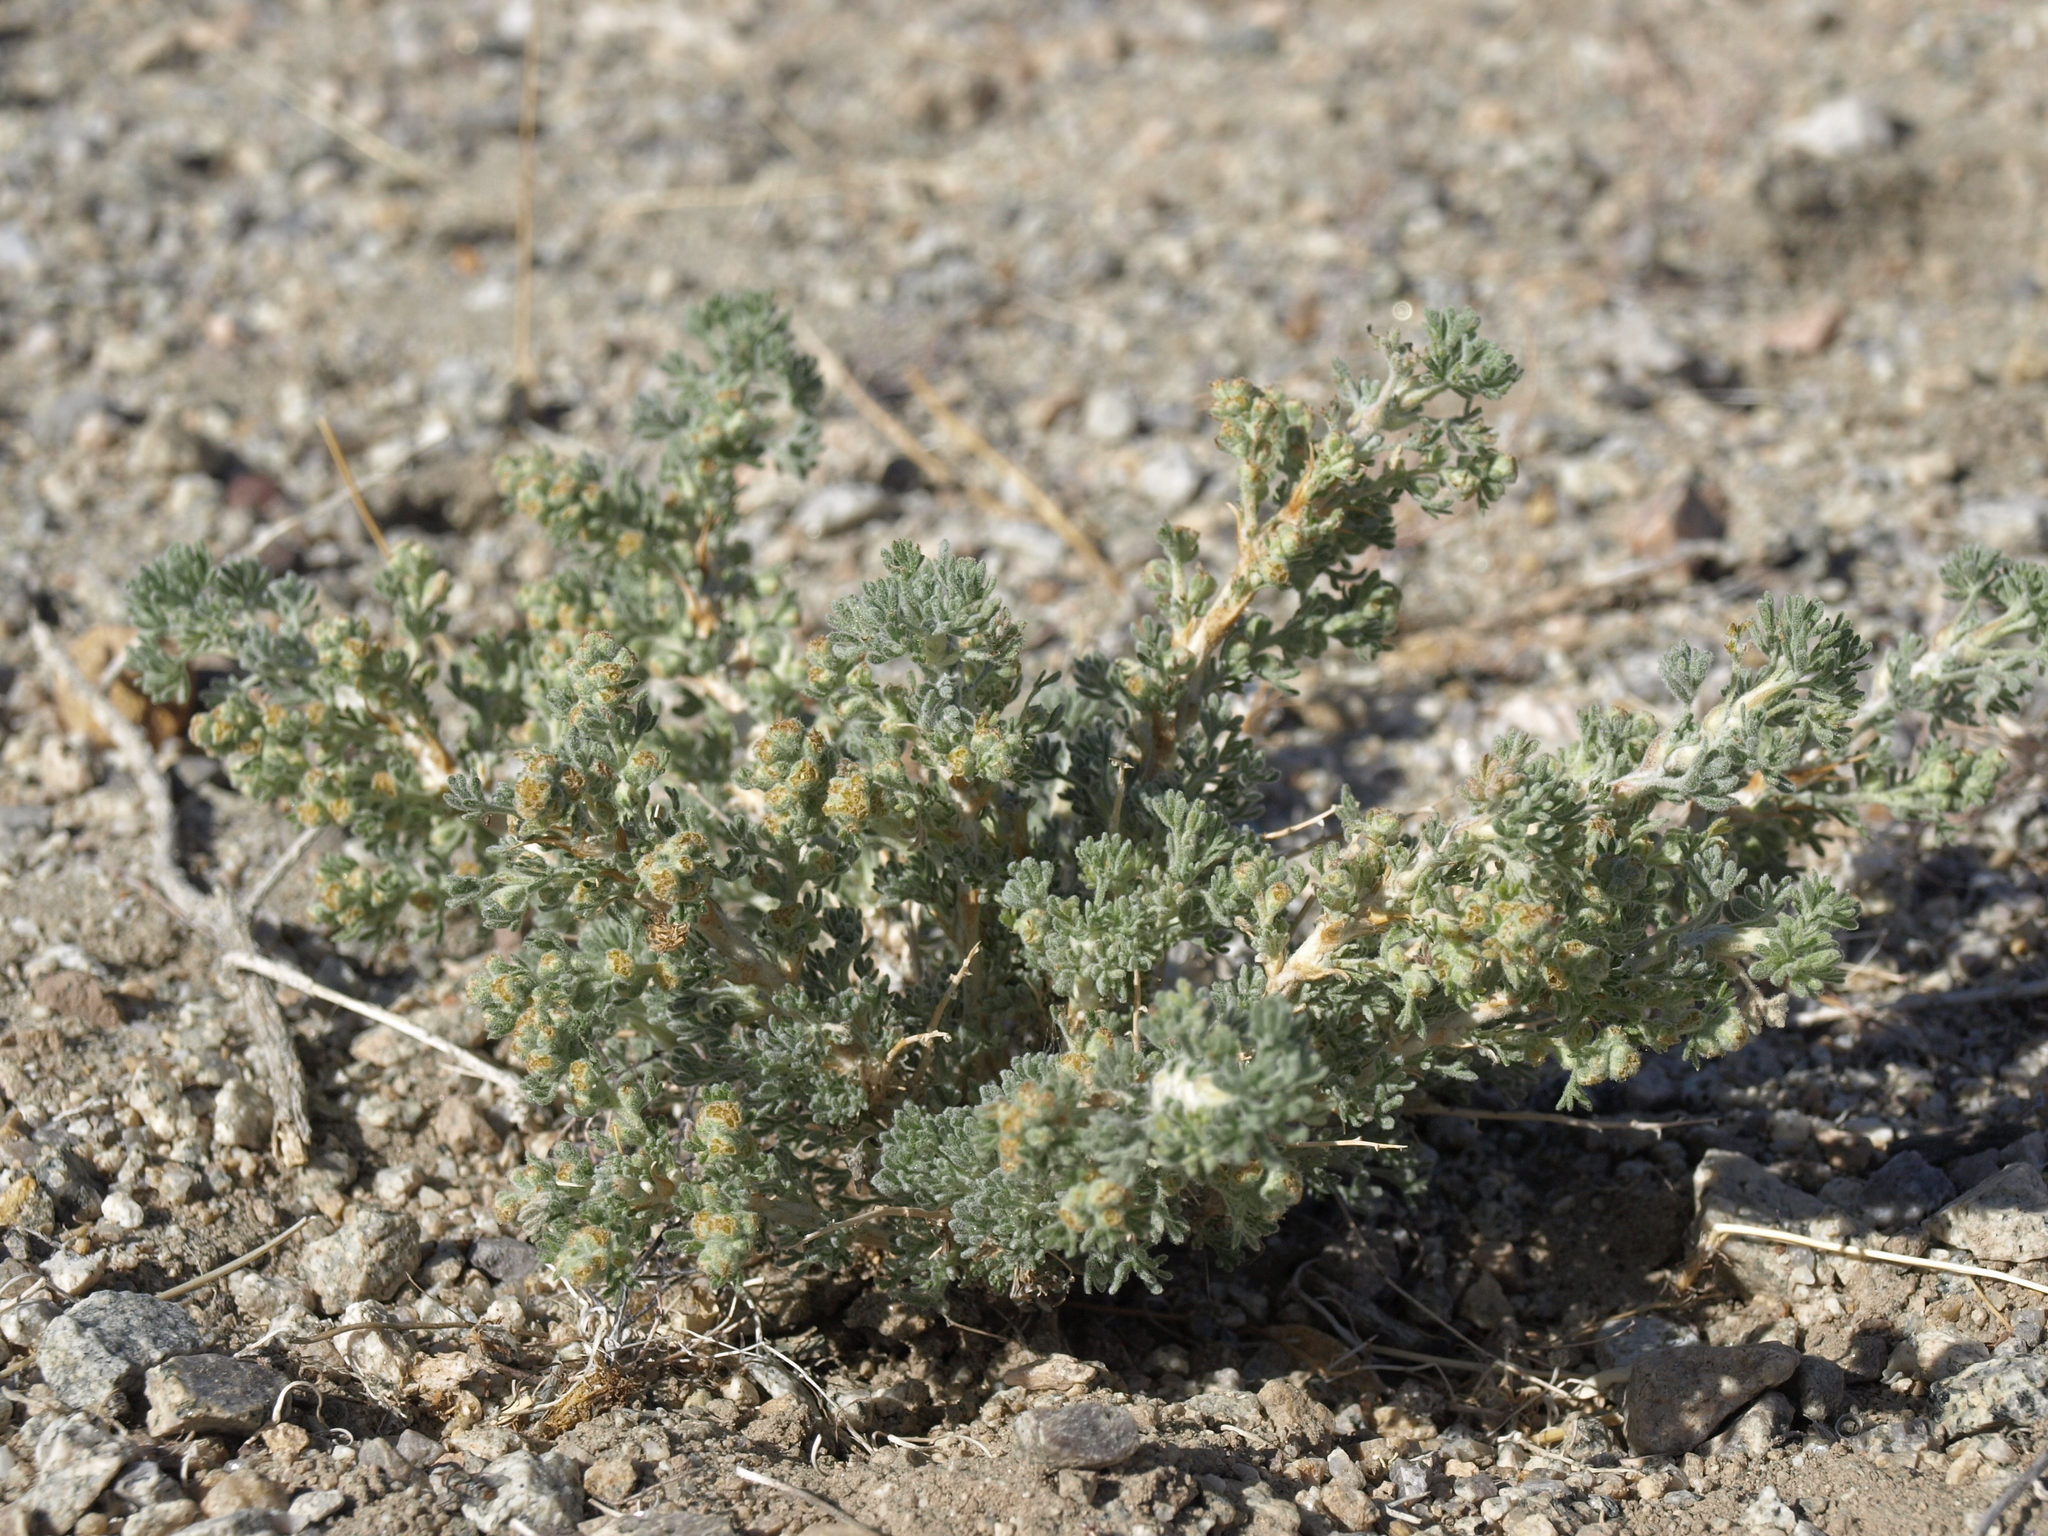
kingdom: Plantae
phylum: Tracheophyta
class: Magnoliopsida
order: Asterales
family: Asteraceae
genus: Artemisia
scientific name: Artemisia spinescens
